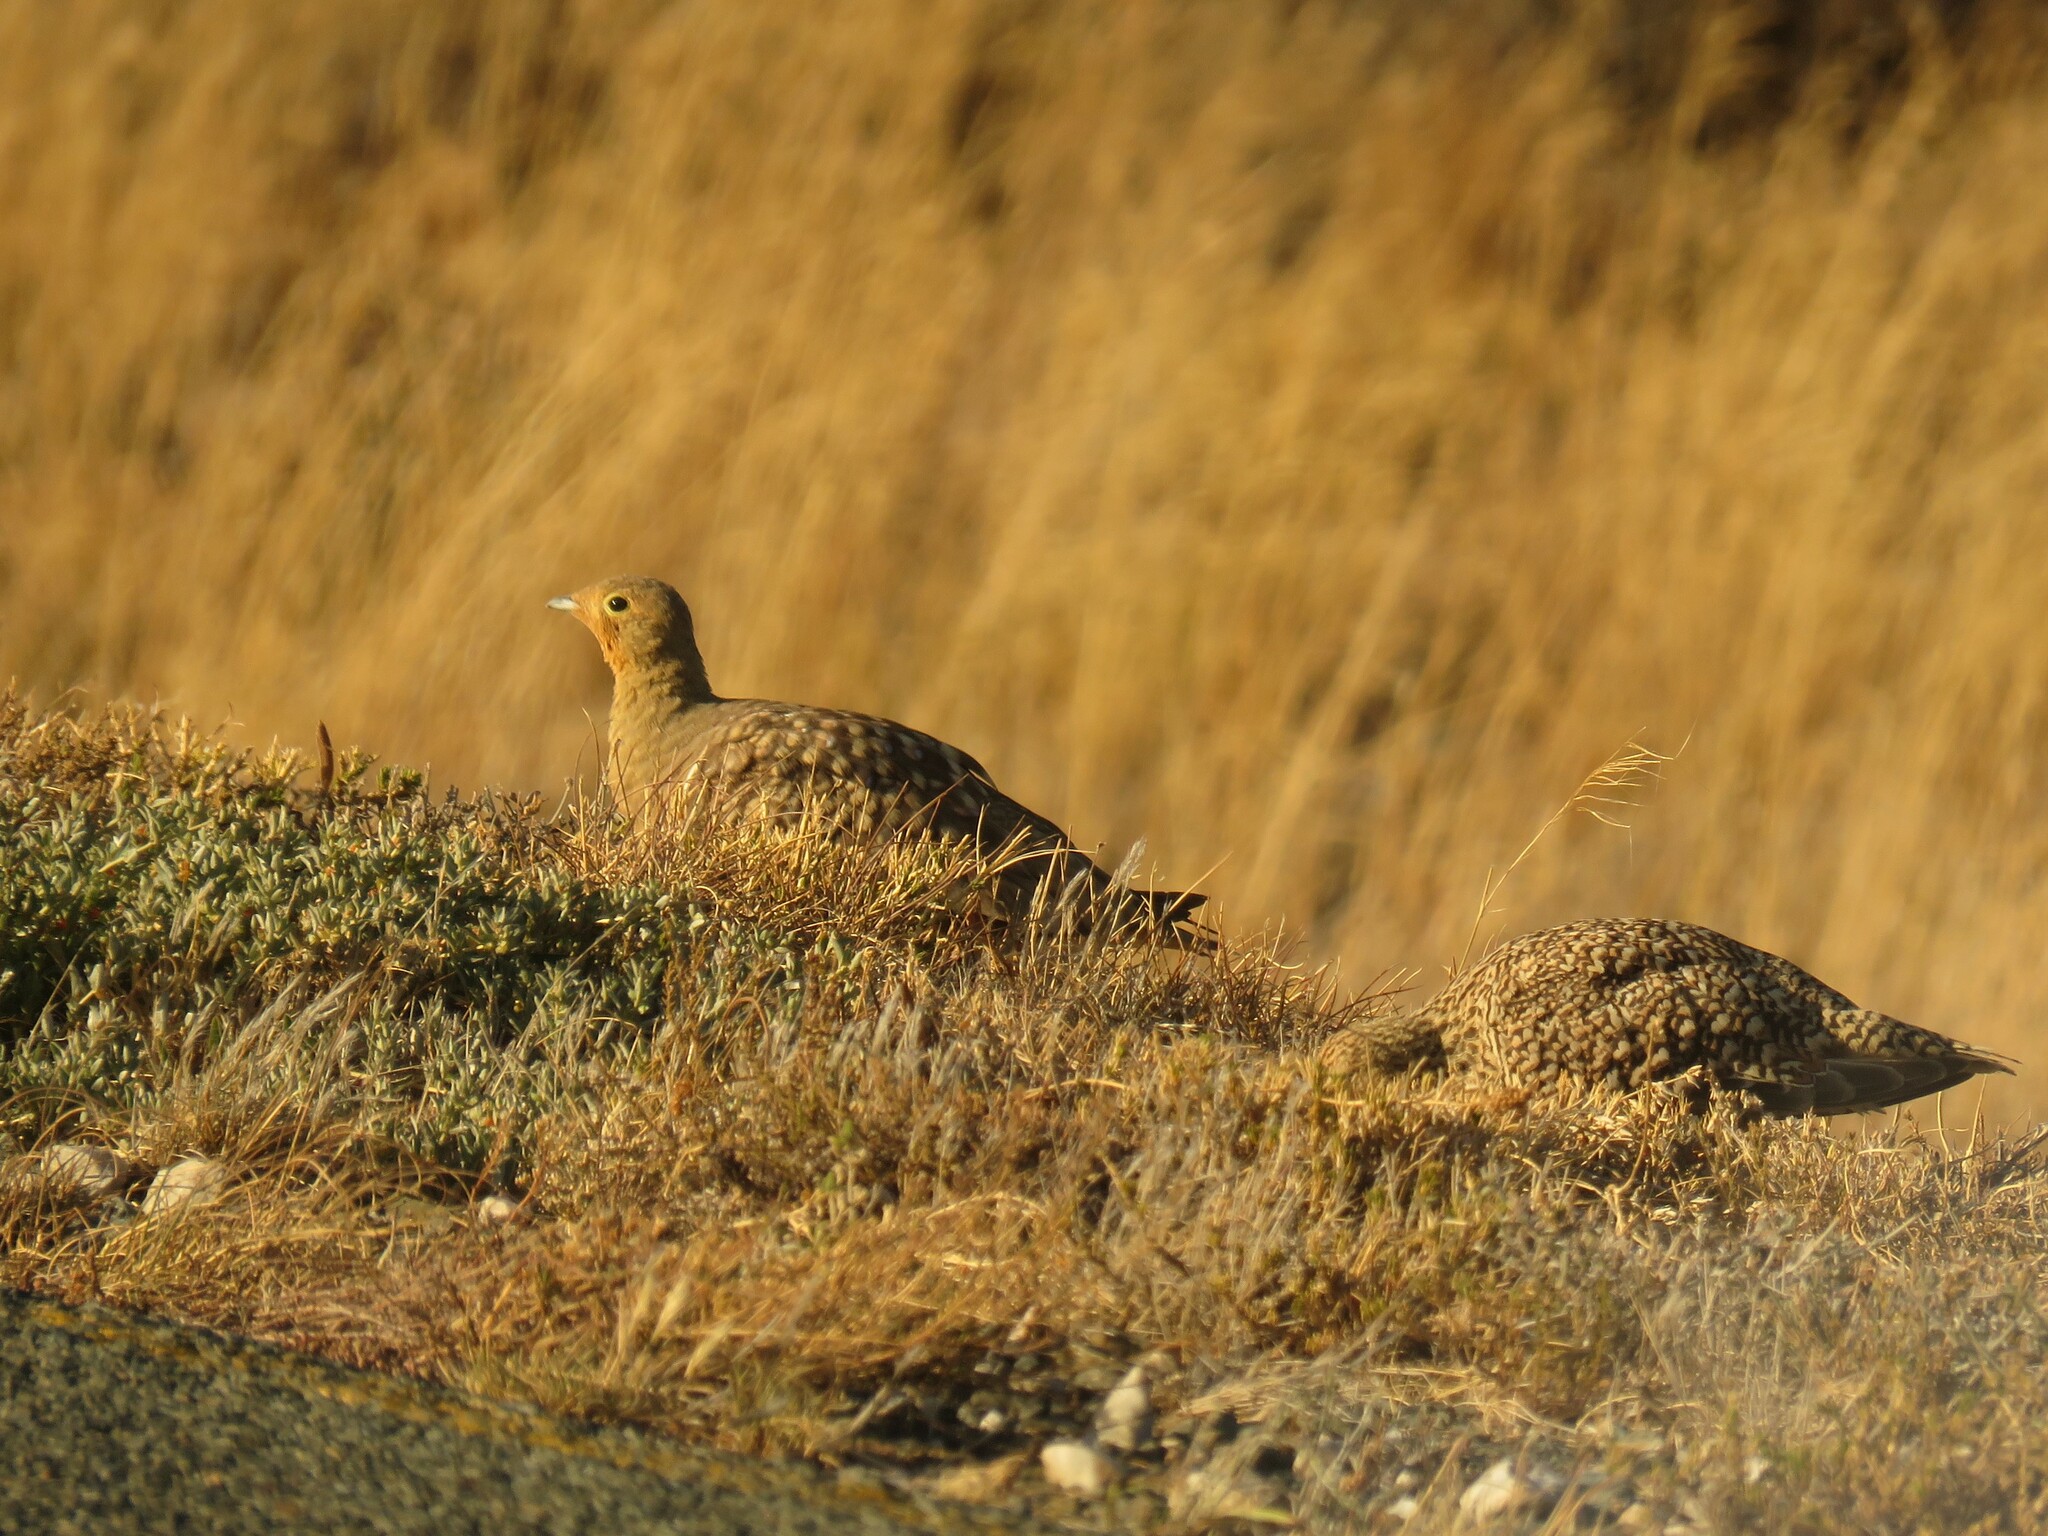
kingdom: Animalia
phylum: Chordata
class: Aves
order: Pteroclidiformes
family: Pteroclididae
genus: Pterocles
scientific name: Pterocles namaqua
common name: Namaqua sandgrouse
